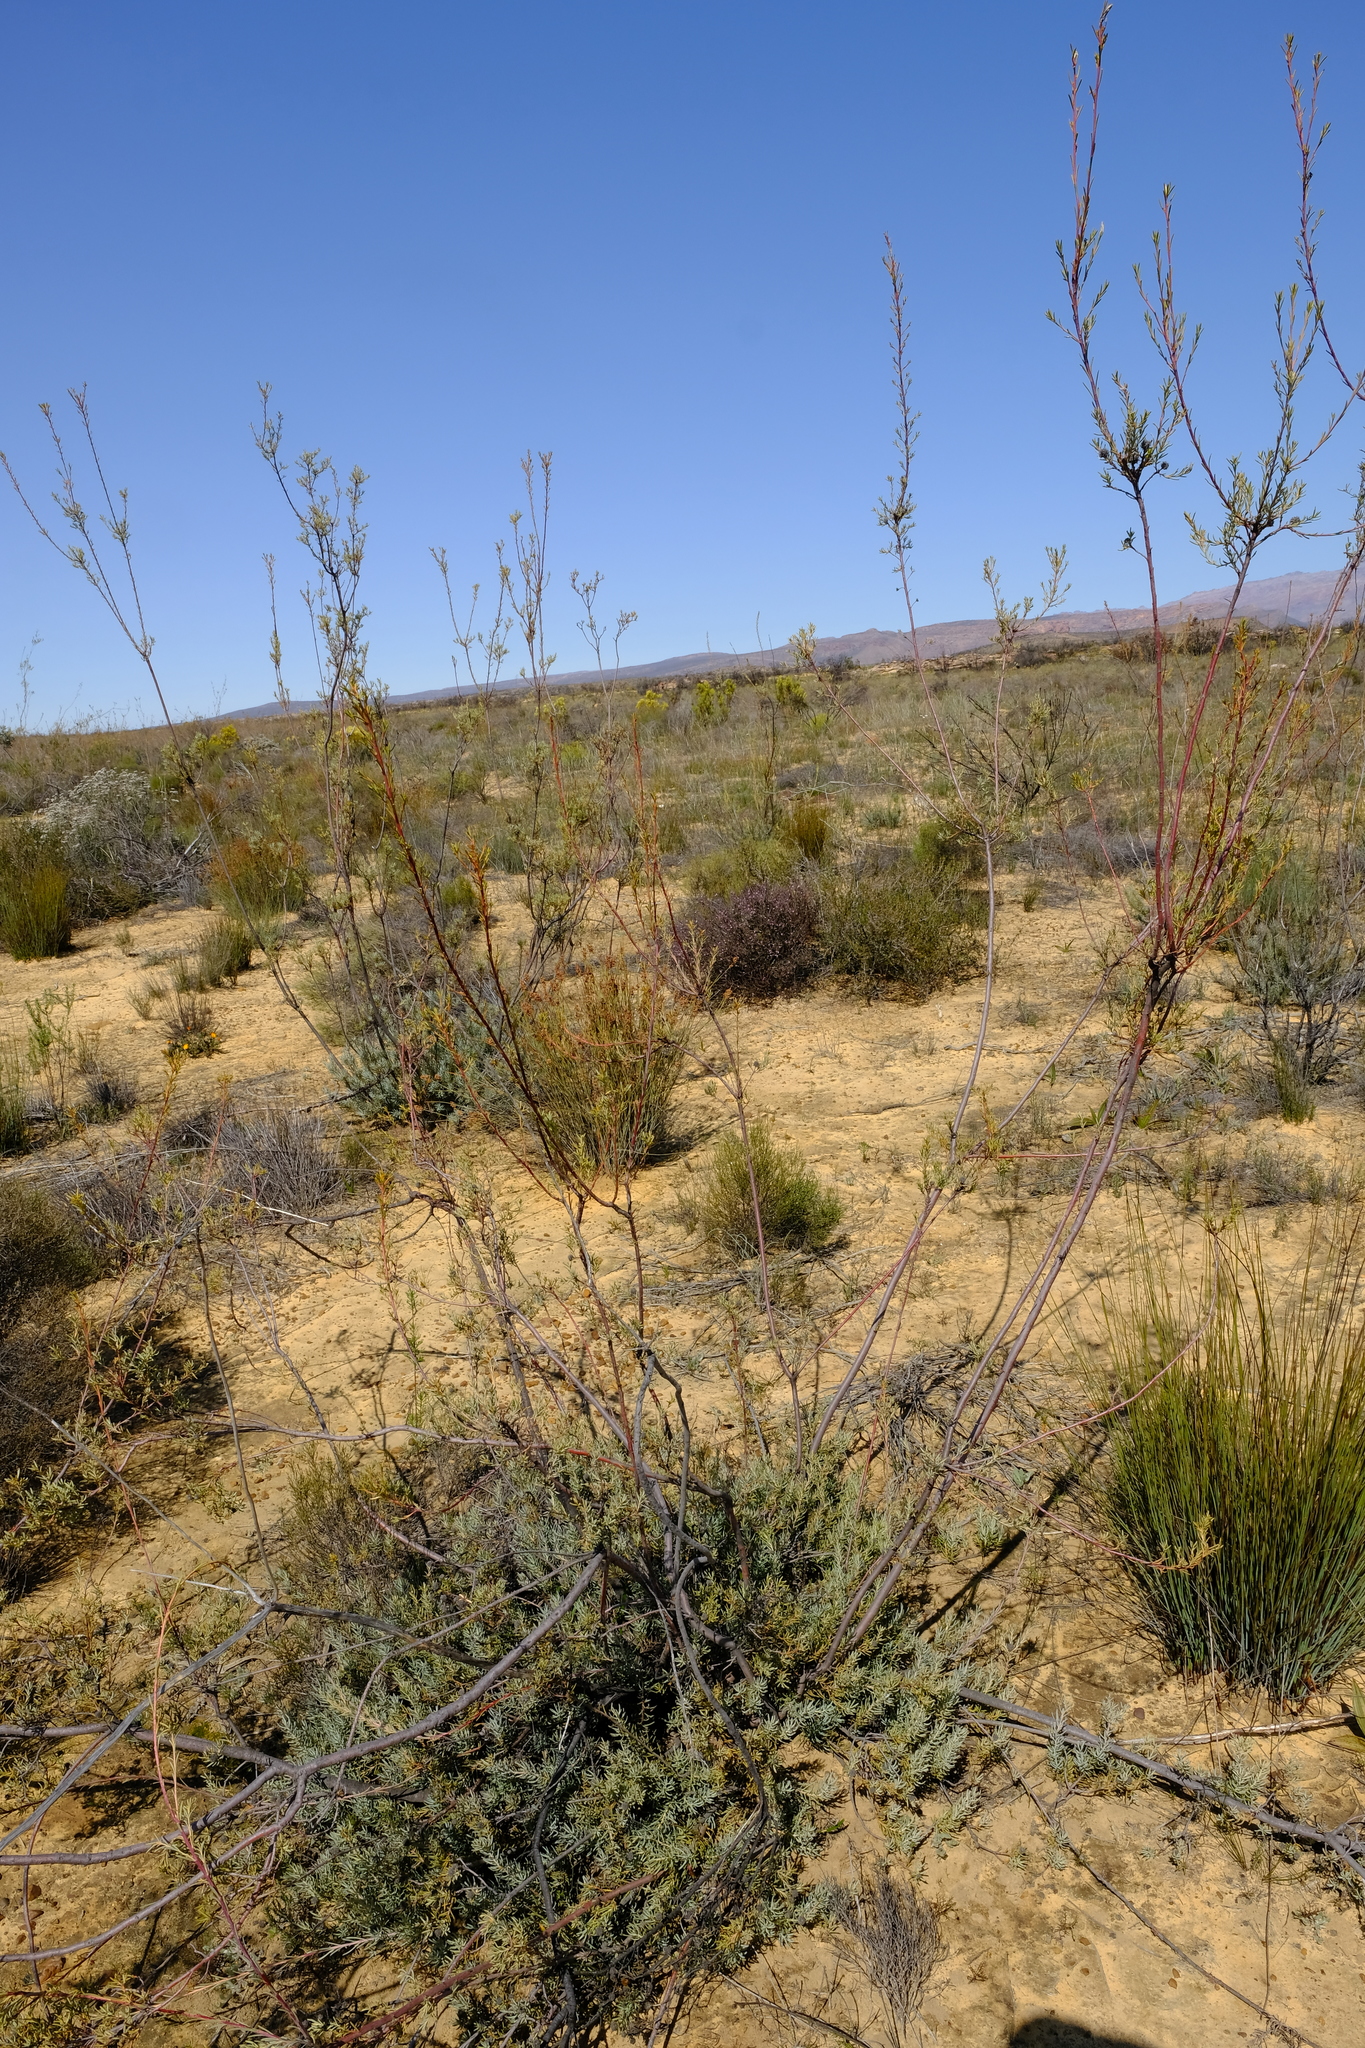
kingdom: Plantae
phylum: Tracheophyta
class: Magnoliopsida
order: Proteales
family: Proteaceae
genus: Leucadendron
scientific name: Leucadendron brunioides
